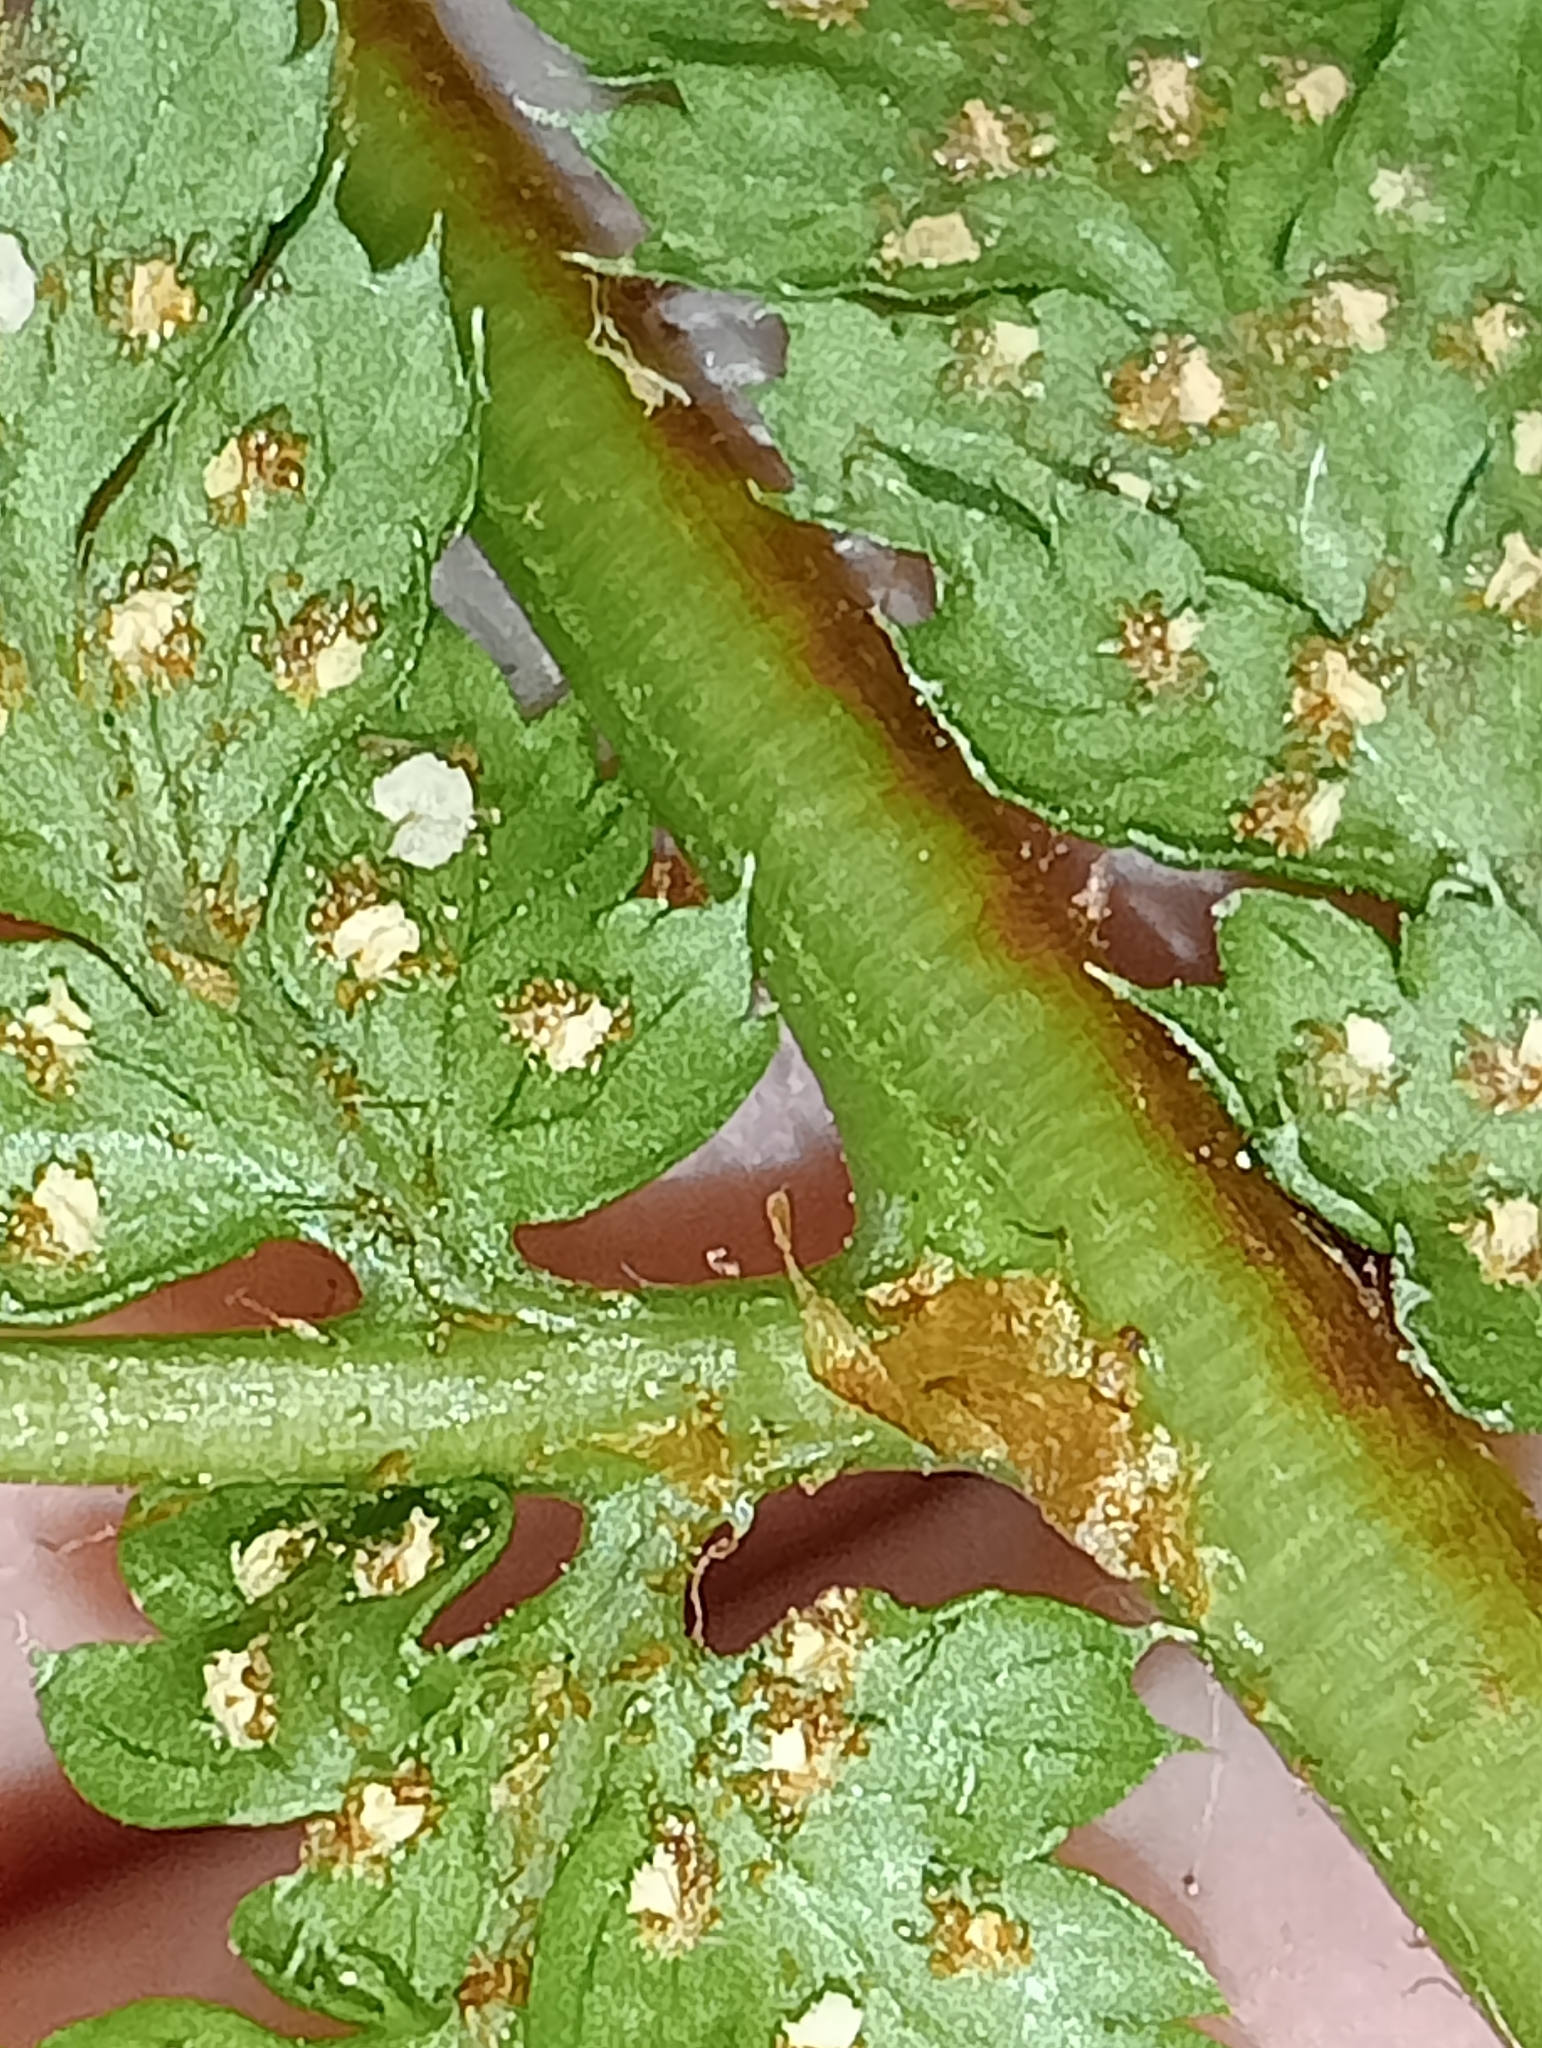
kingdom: Plantae
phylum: Tracheophyta
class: Polypodiopsida
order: Polypodiales
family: Dryopteridaceae
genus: Dryopteris
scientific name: Dryopteris dilatata
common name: Broad buckler-fern
